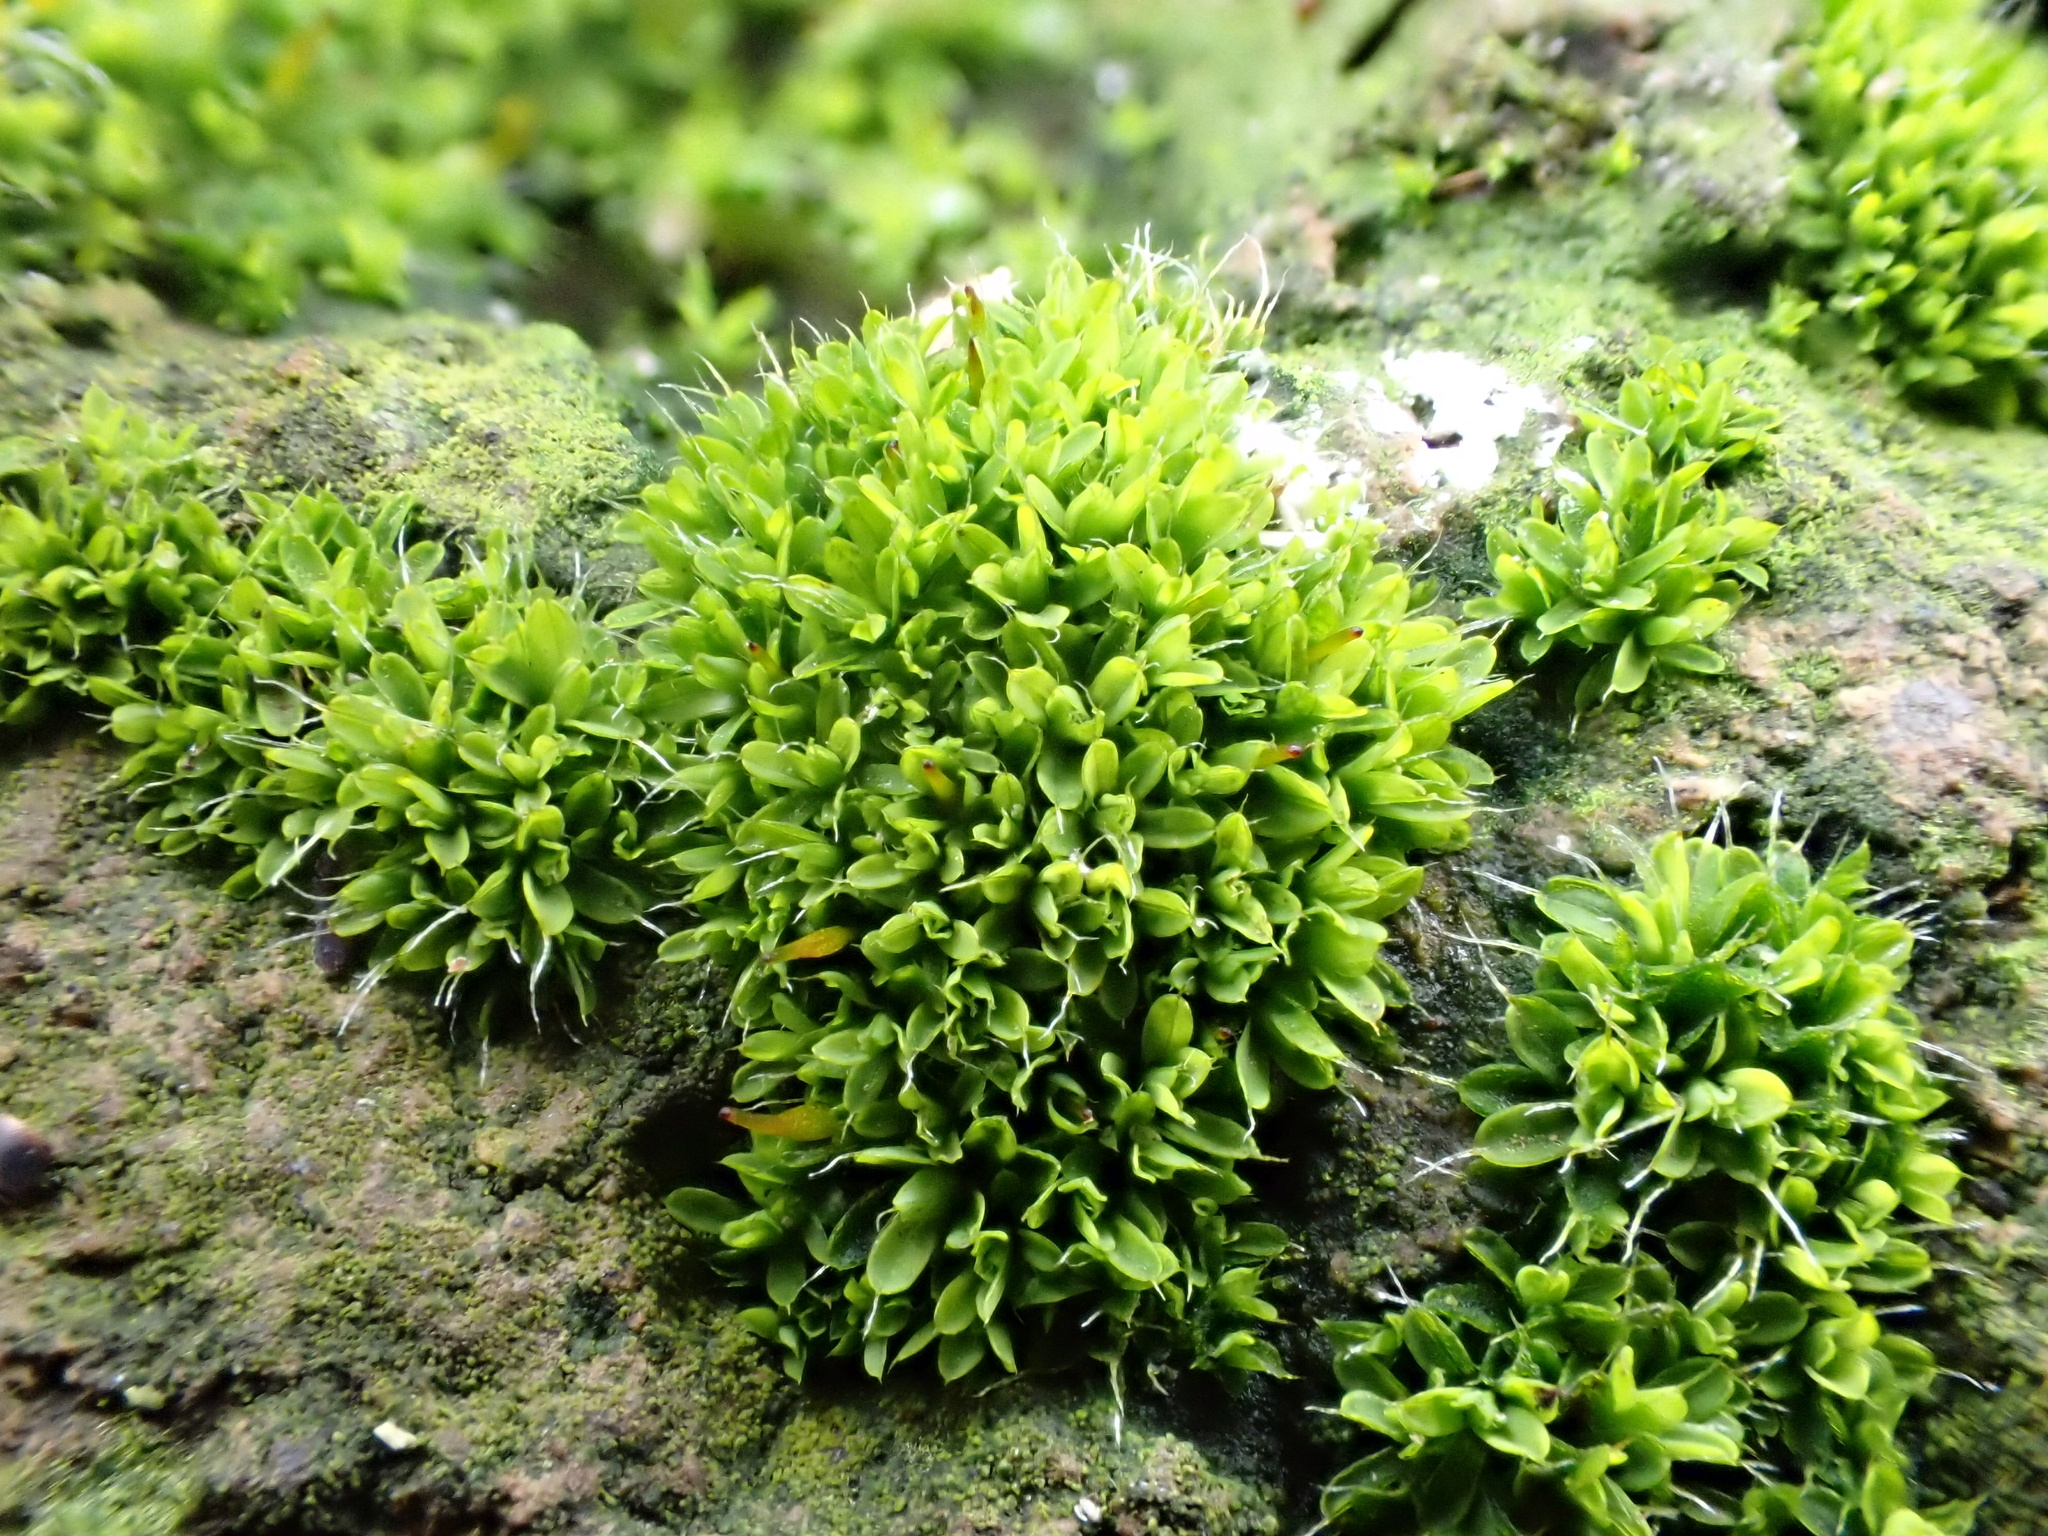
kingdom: Plantae
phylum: Bryophyta
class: Bryopsida
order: Pottiales
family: Pottiaceae
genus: Tortula
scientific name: Tortula muralis
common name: Wall screw-moss
